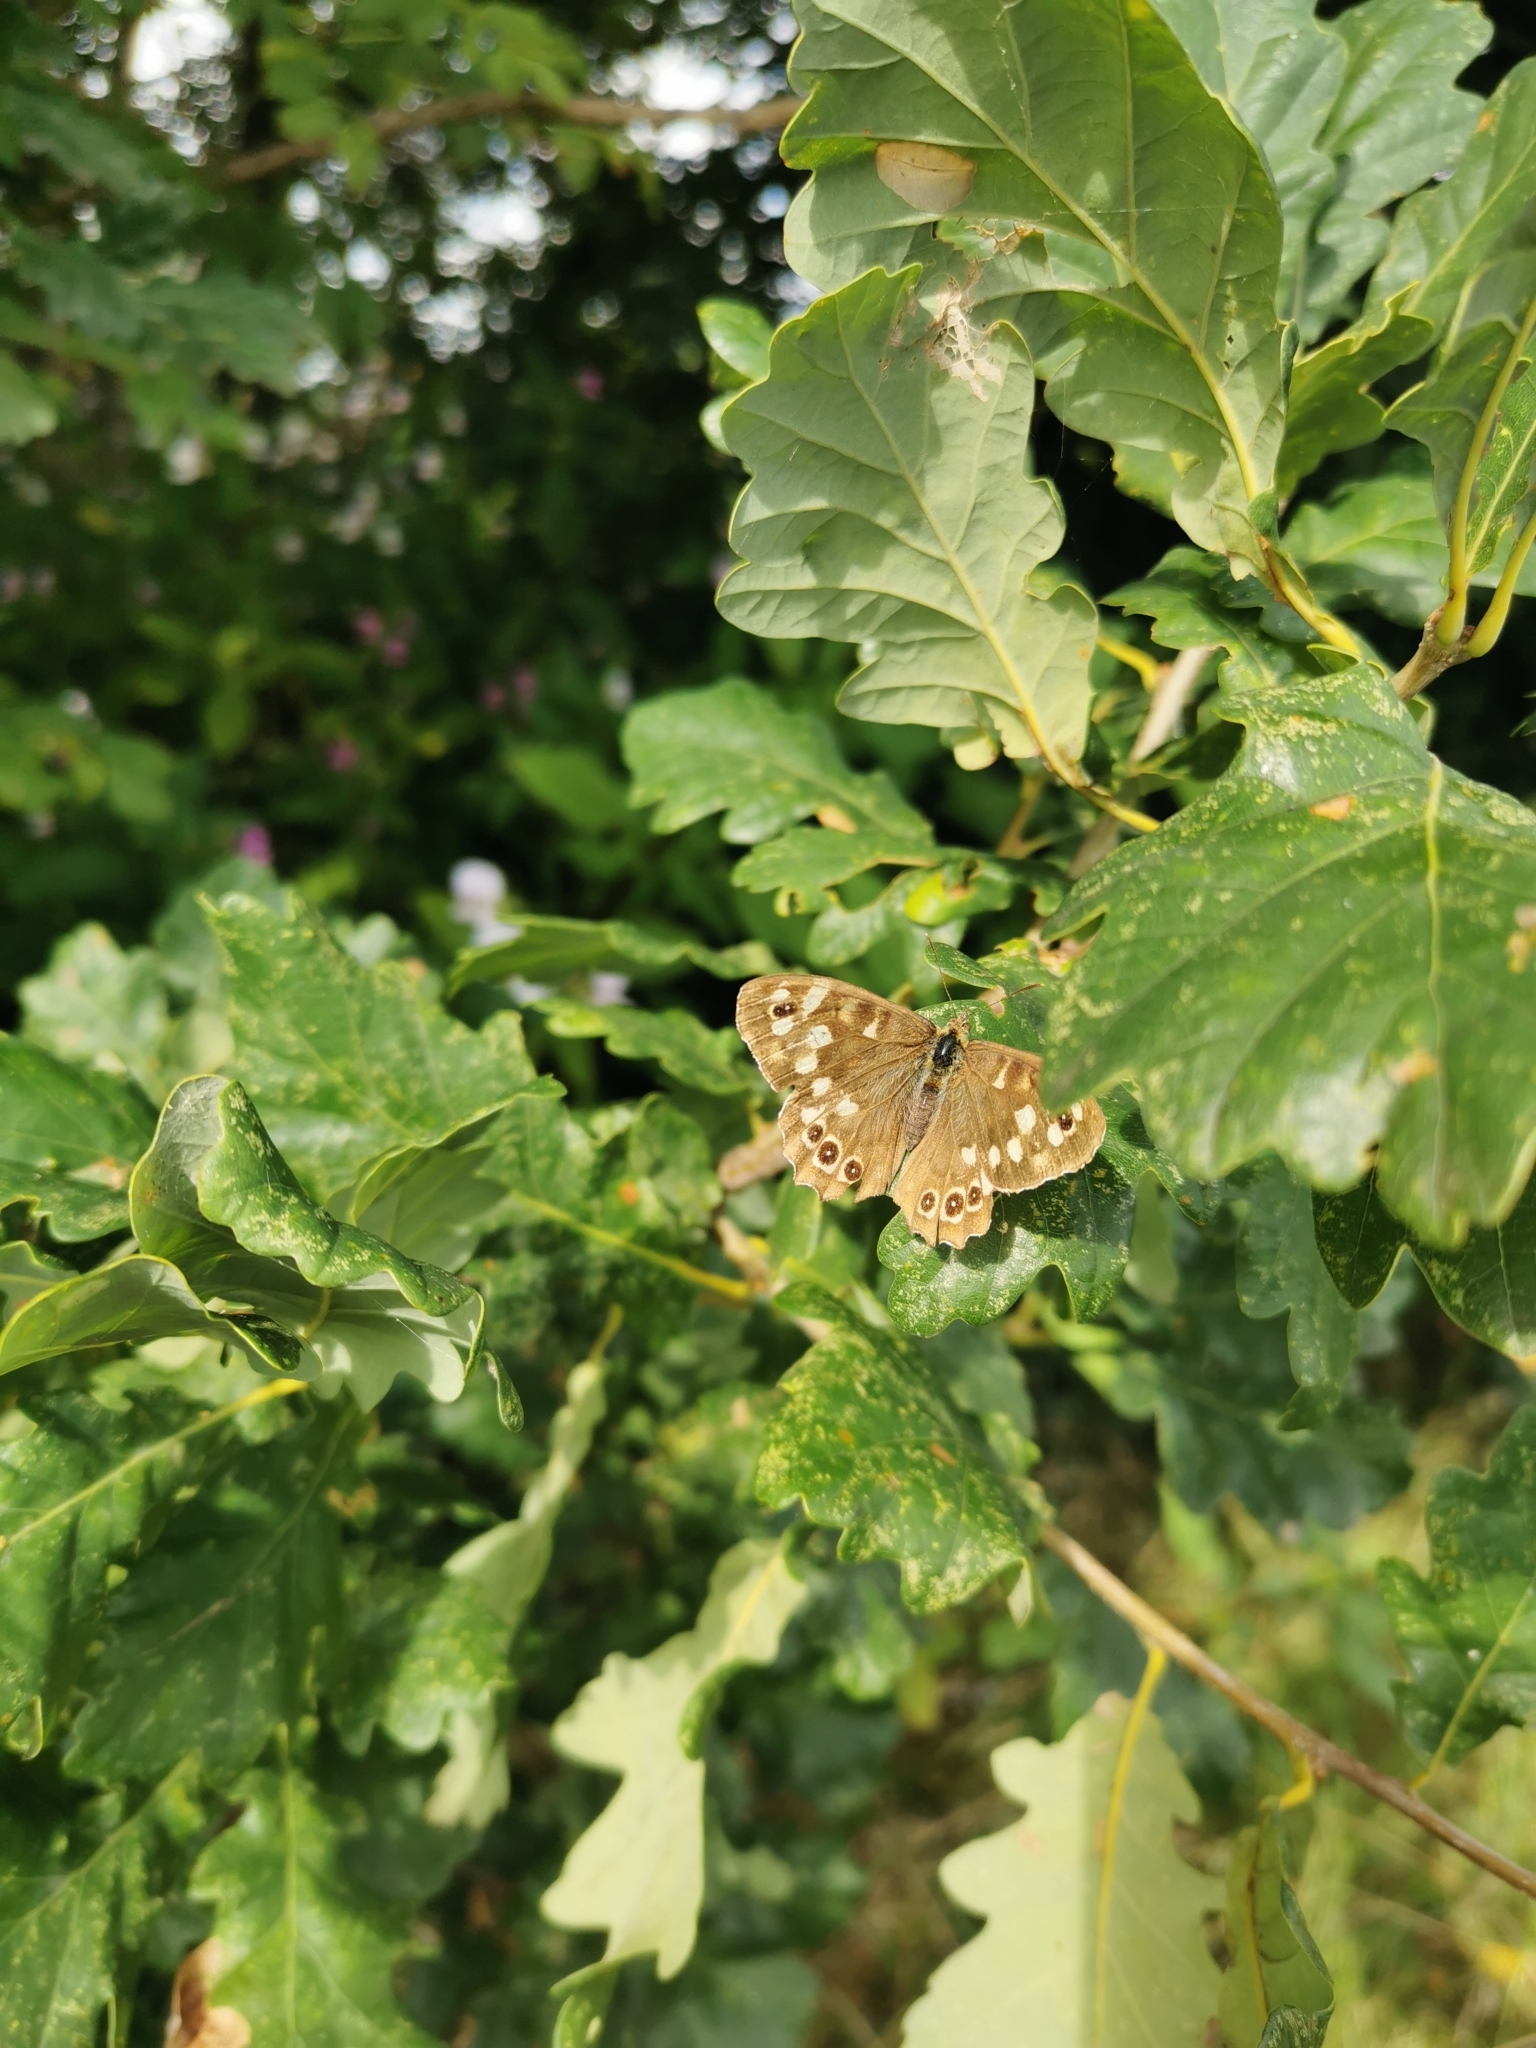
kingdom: Animalia
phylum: Arthropoda
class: Insecta
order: Lepidoptera
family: Nymphalidae
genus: Pararge
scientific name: Pararge aegeria
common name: Speckled wood
